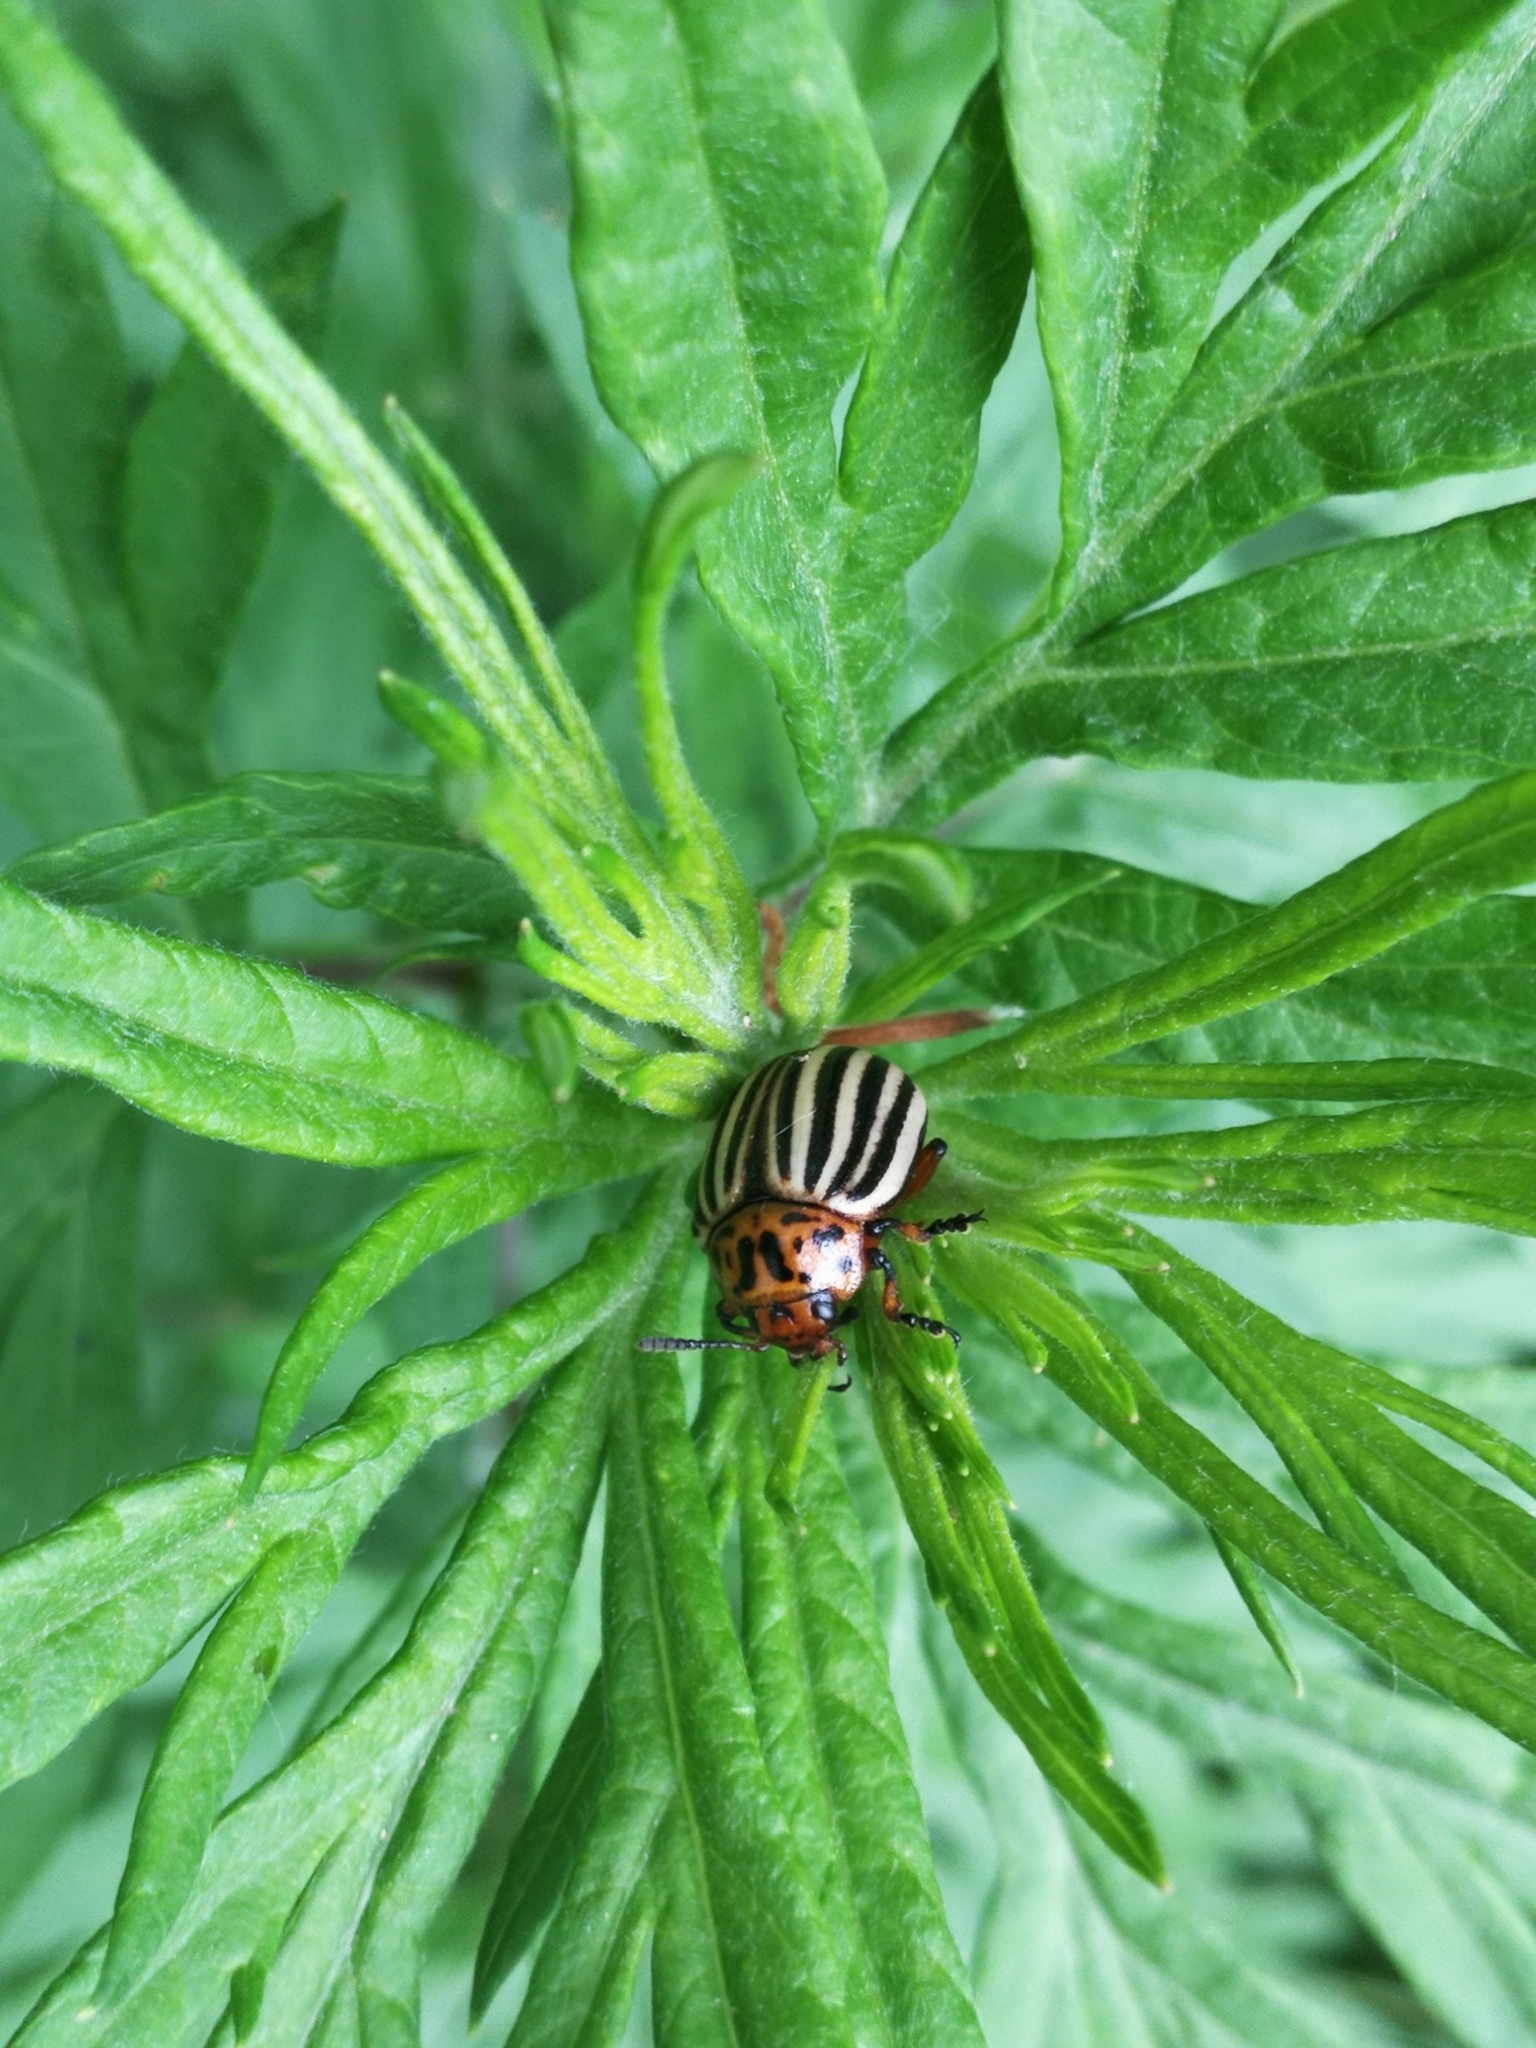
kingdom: Animalia
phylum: Arthropoda
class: Insecta
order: Coleoptera
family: Chrysomelidae
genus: Leptinotarsa
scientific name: Leptinotarsa decemlineata
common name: Colorado potato beetle
